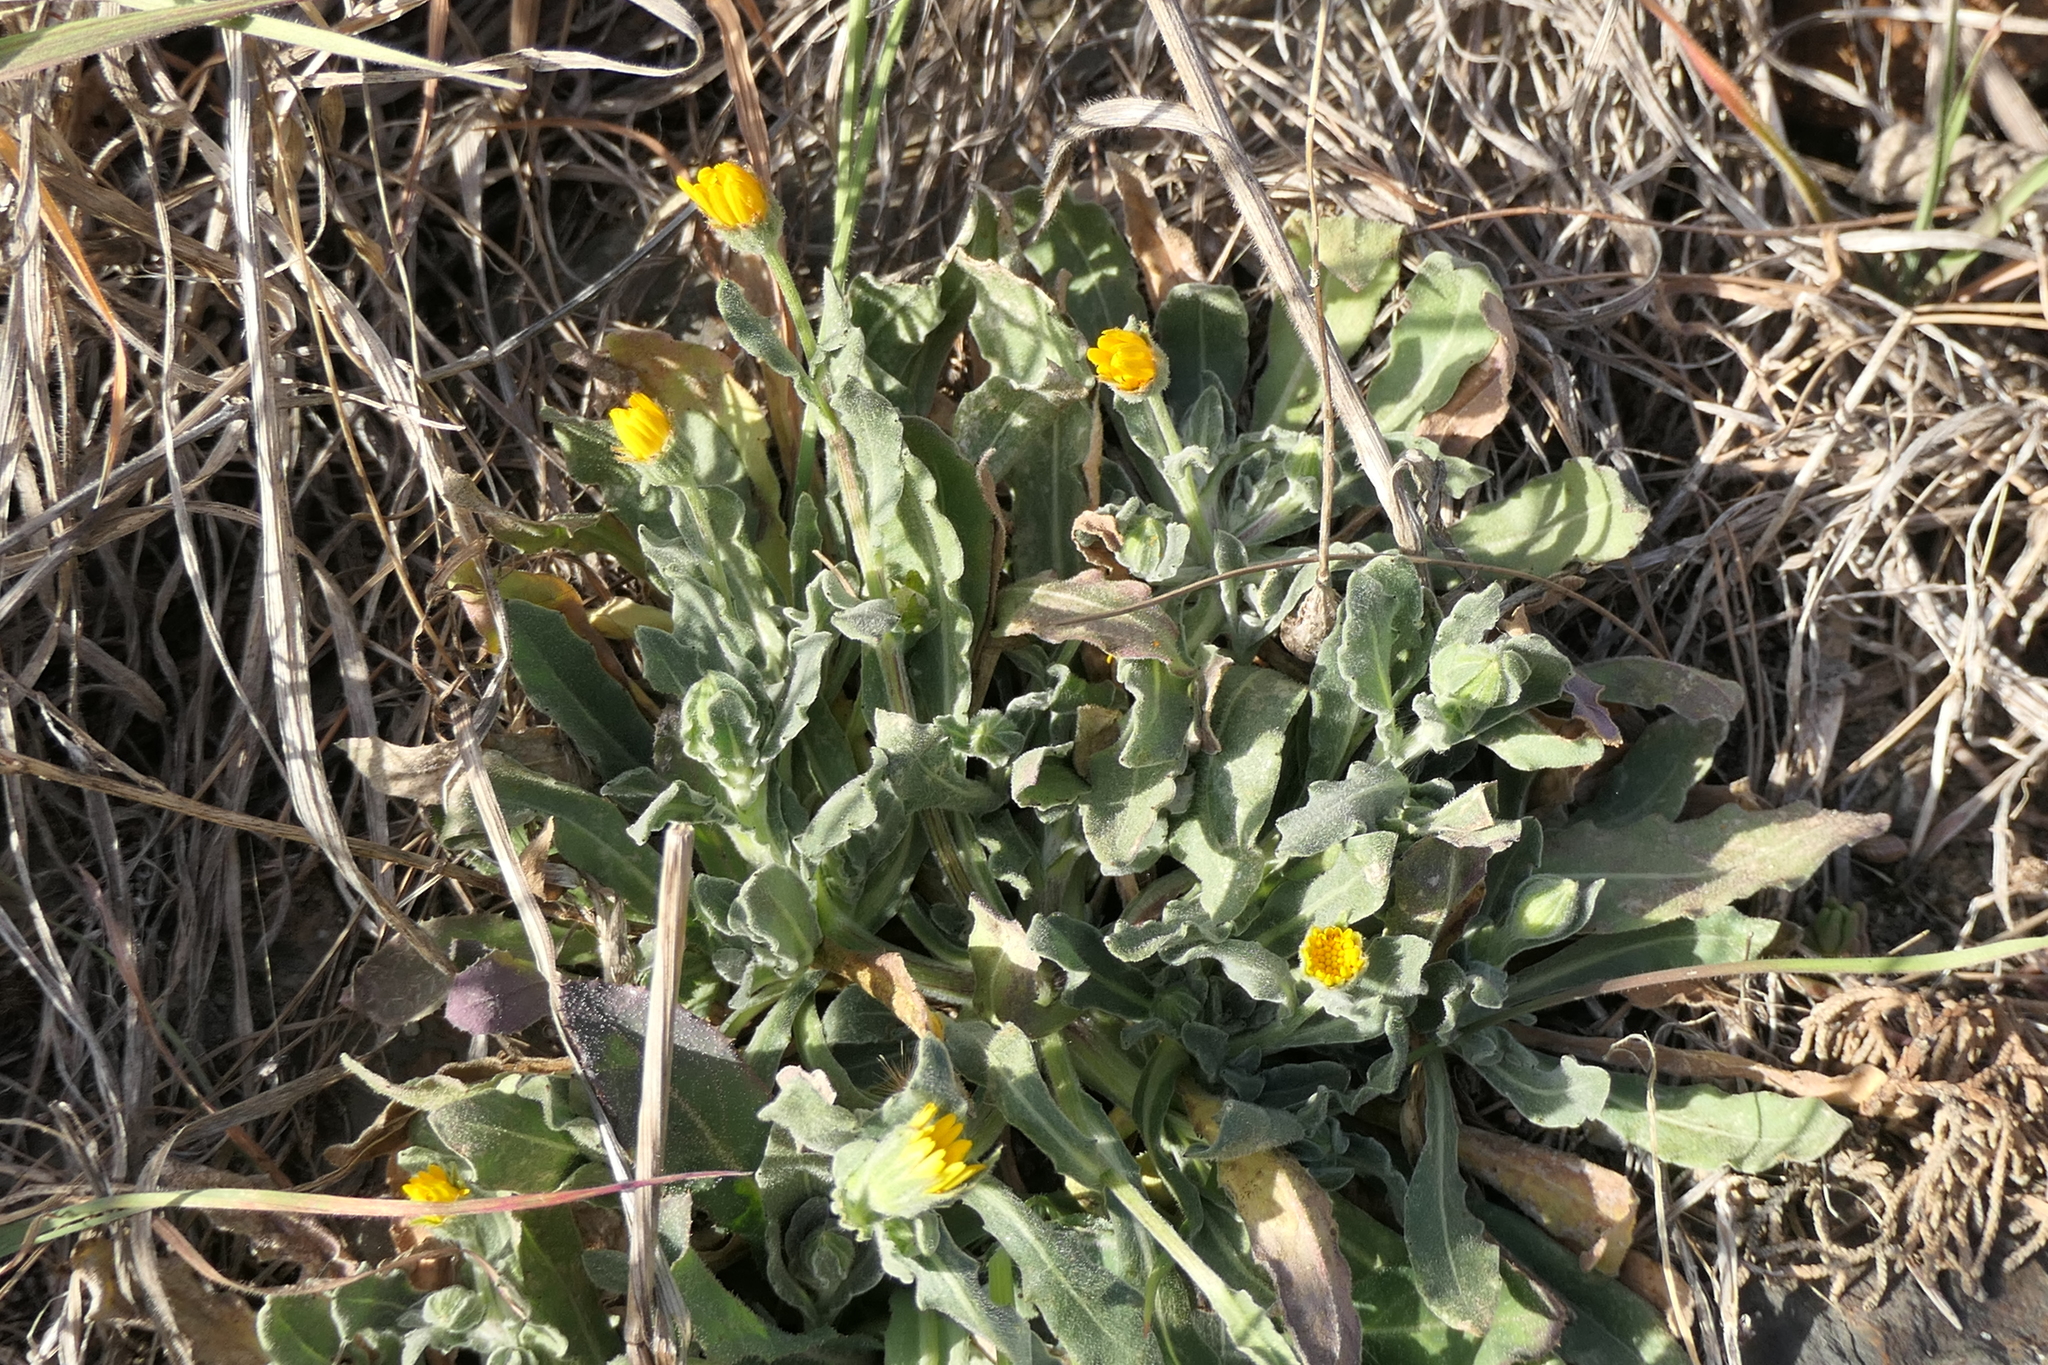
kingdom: Plantae
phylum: Tracheophyta
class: Magnoliopsida
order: Asterales
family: Asteraceae
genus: Calendula
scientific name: Calendula arvensis
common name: Field marigold
